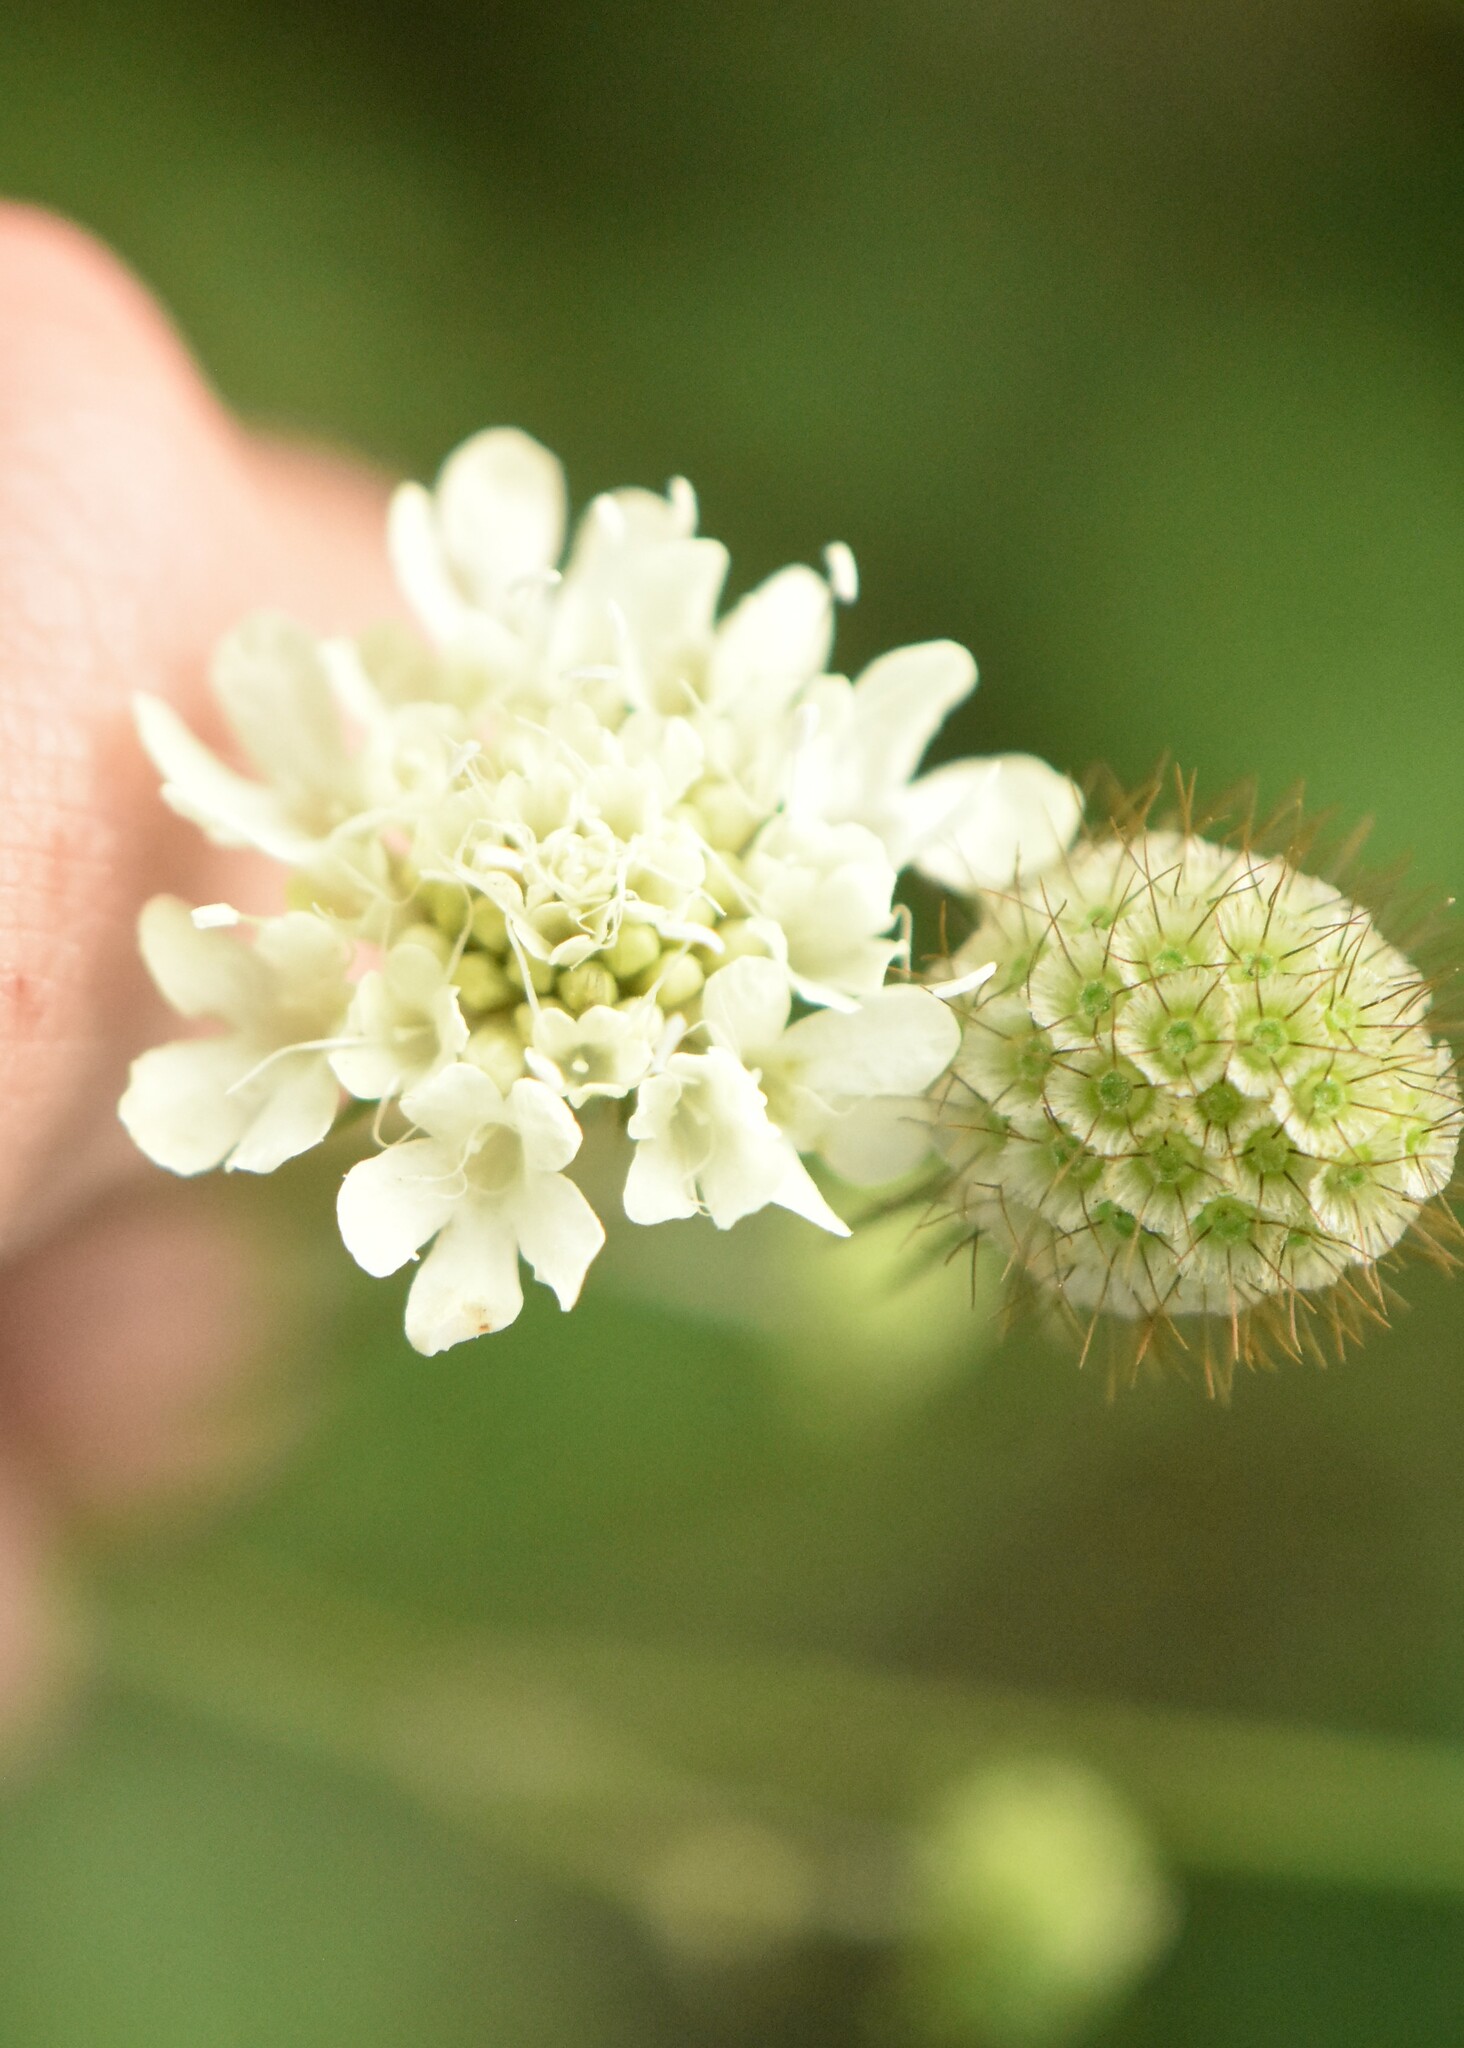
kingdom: Plantae
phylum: Tracheophyta
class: Magnoliopsida
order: Dipsacales
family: Caprifoliaceae
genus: Scabiosa
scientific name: Scabiosa ochroleuca
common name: Cream pincushions
